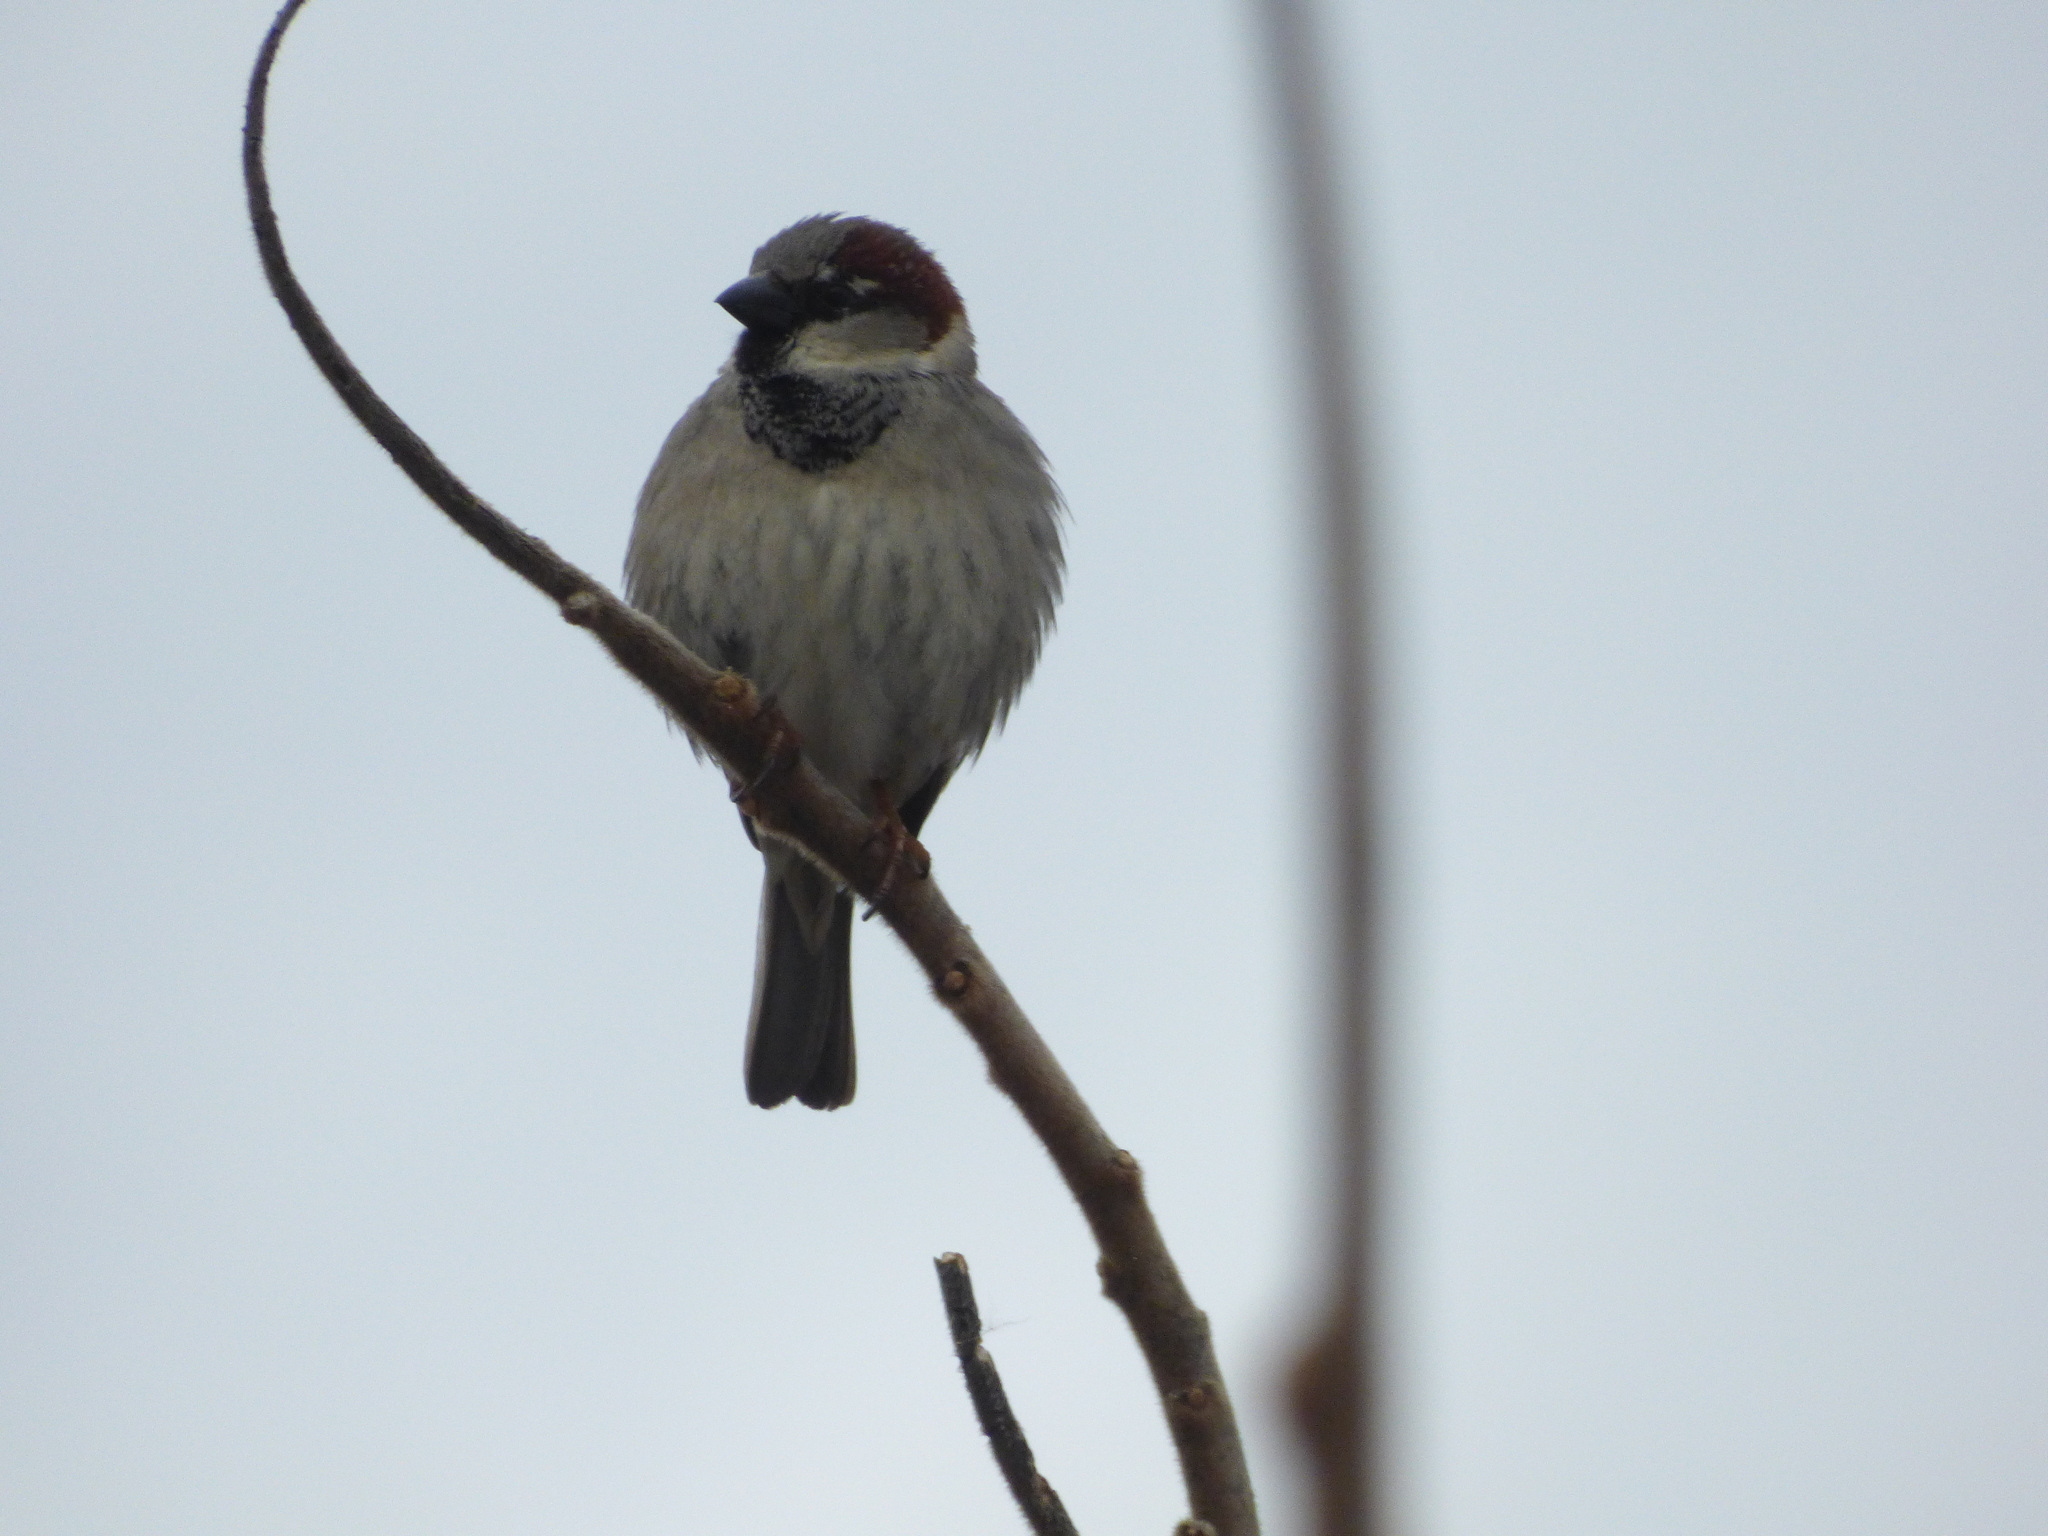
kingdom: Animalia
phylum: Chordata
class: Aves
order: Passeriformes
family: Passeridae
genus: Passer
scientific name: Passer domesticus
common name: House sparrow
